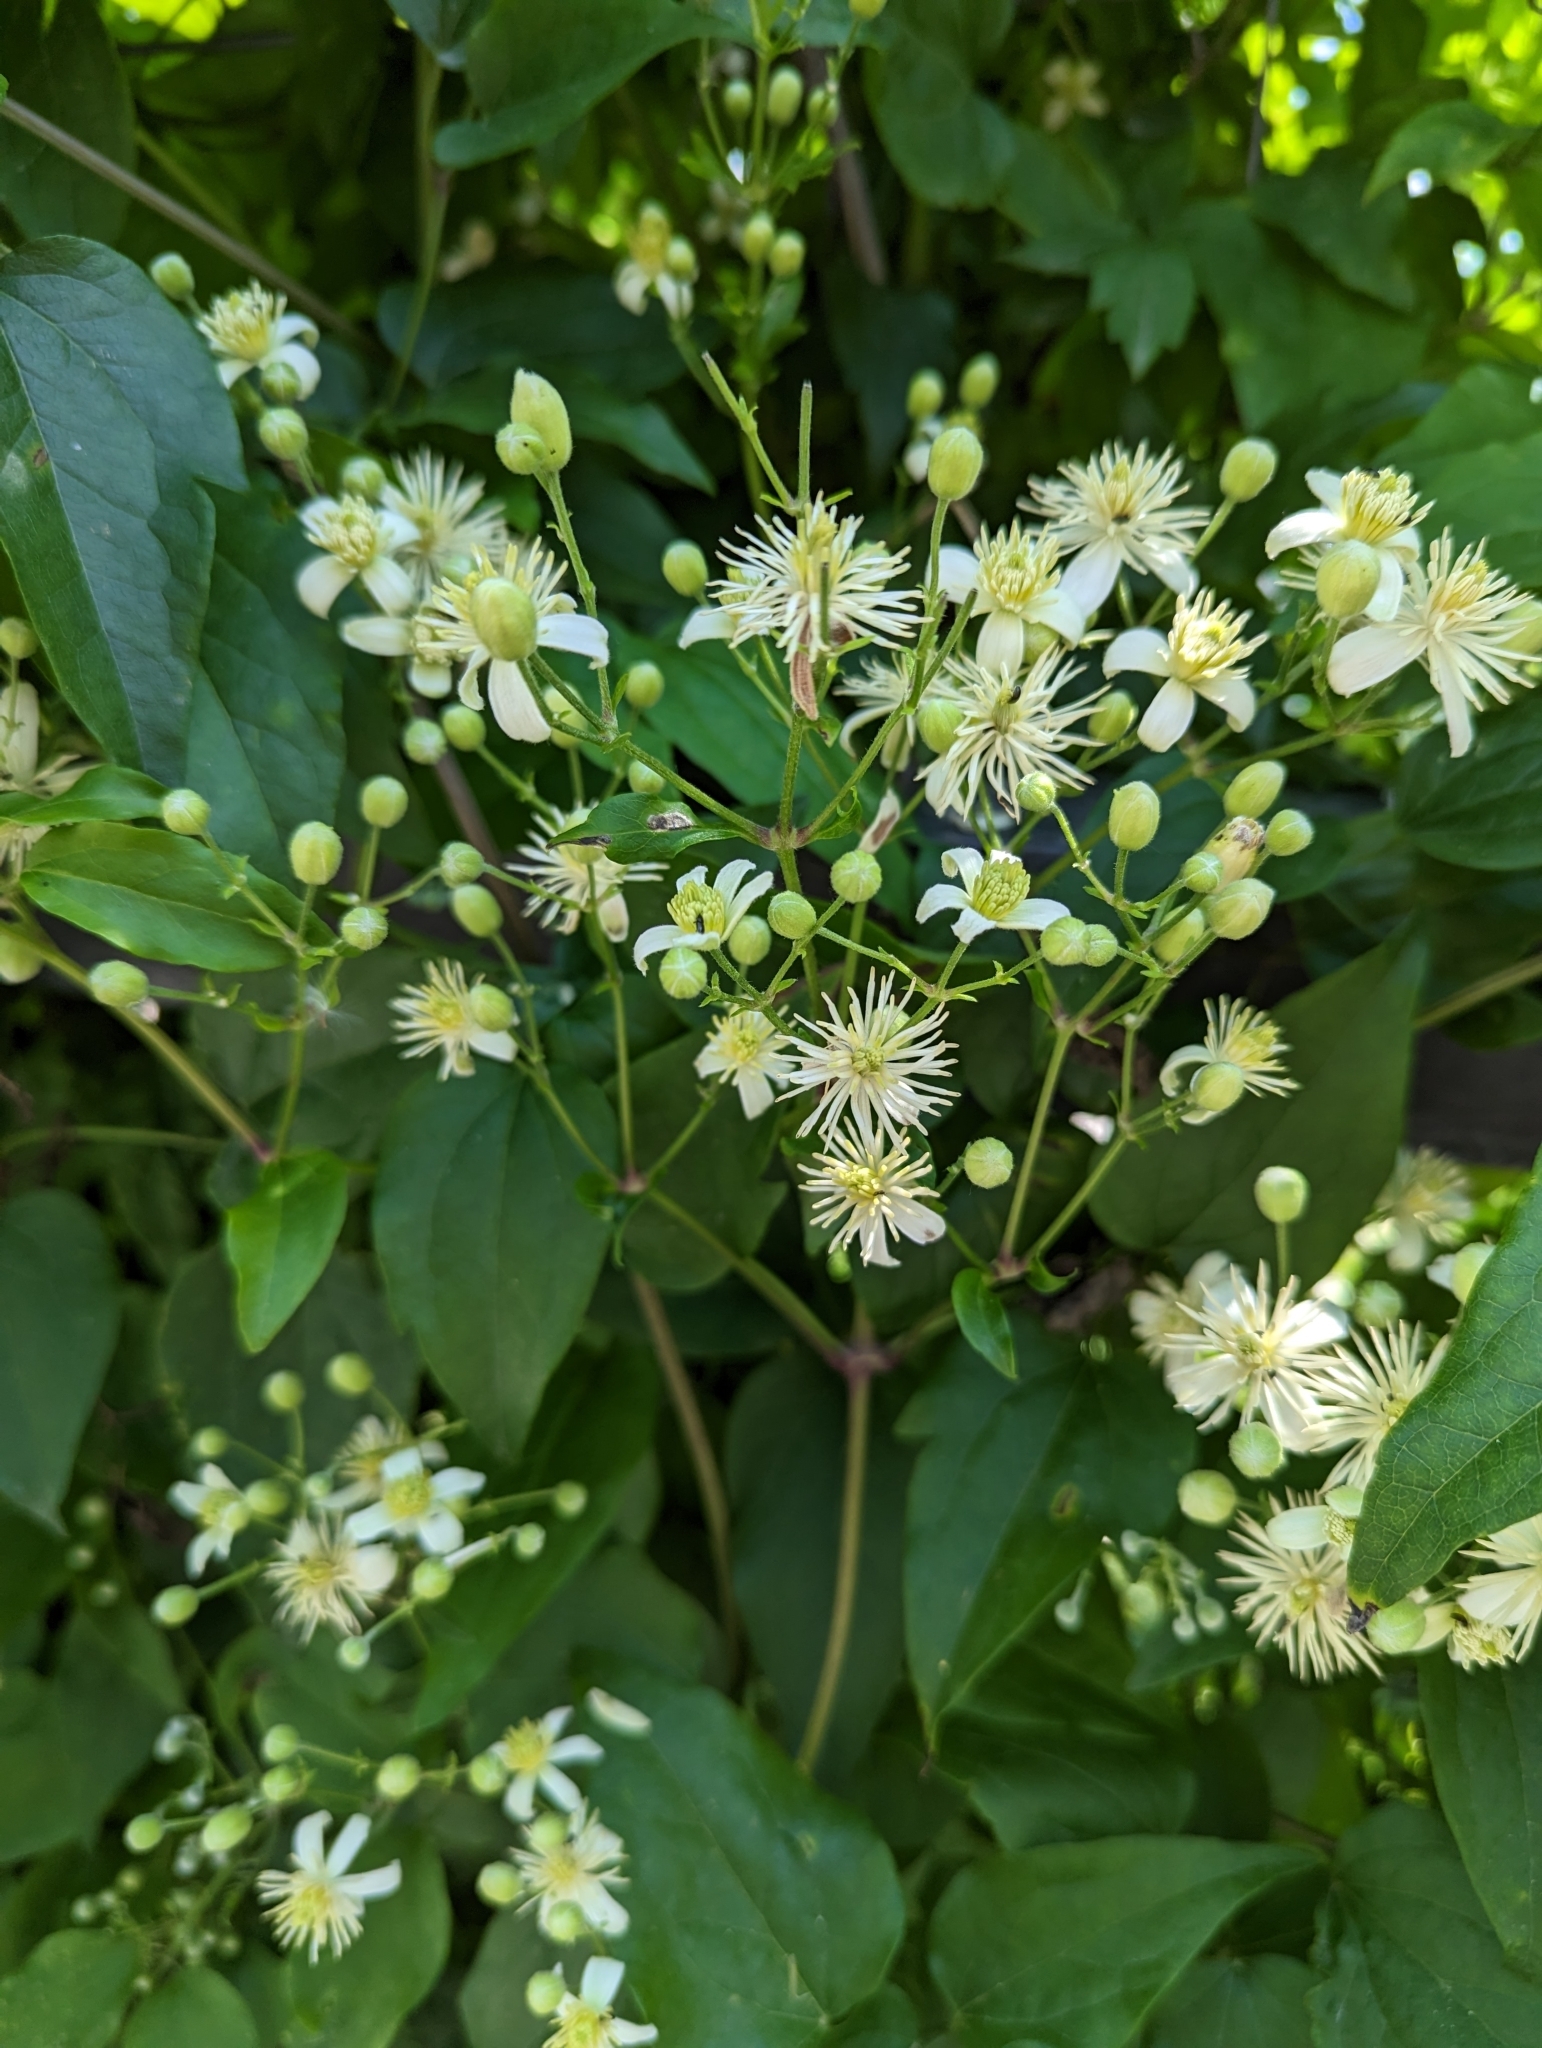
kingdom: Plantae
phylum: Tracheophyta
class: Magnoliopsida
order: Ranunculales
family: Ranunculaceae
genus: Clematis
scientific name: Clematis vitalba
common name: Evergreen clematis
